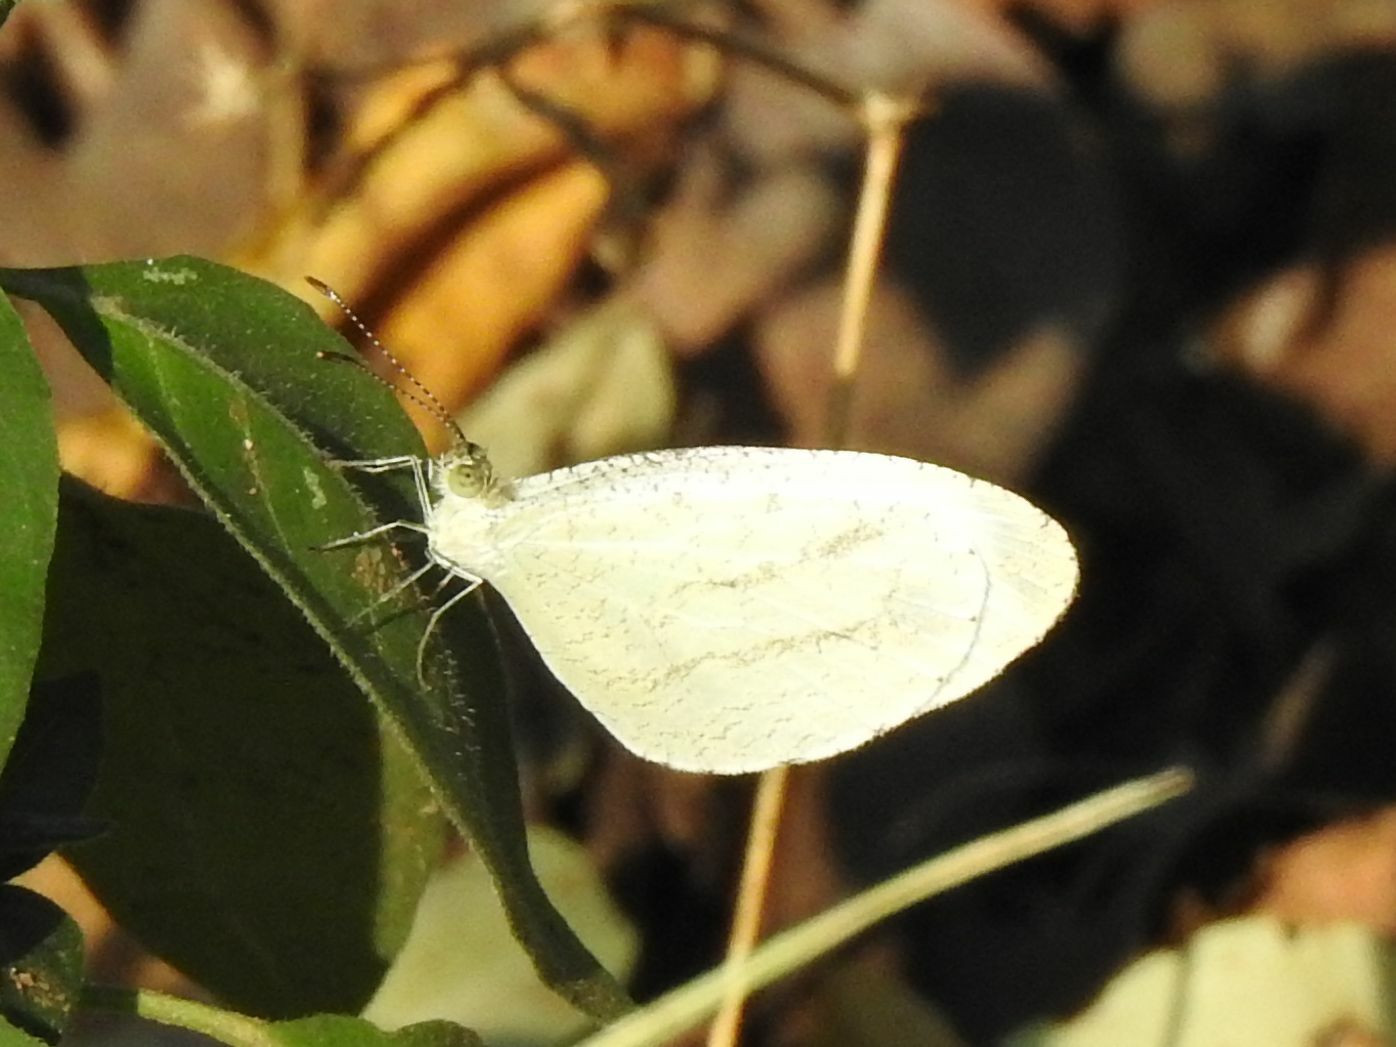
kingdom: Animalia
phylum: Arthropoda
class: Insecta
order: Lepidoptera
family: Pieridae
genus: Leptosia
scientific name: Leptosia alcesta
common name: African wood white
